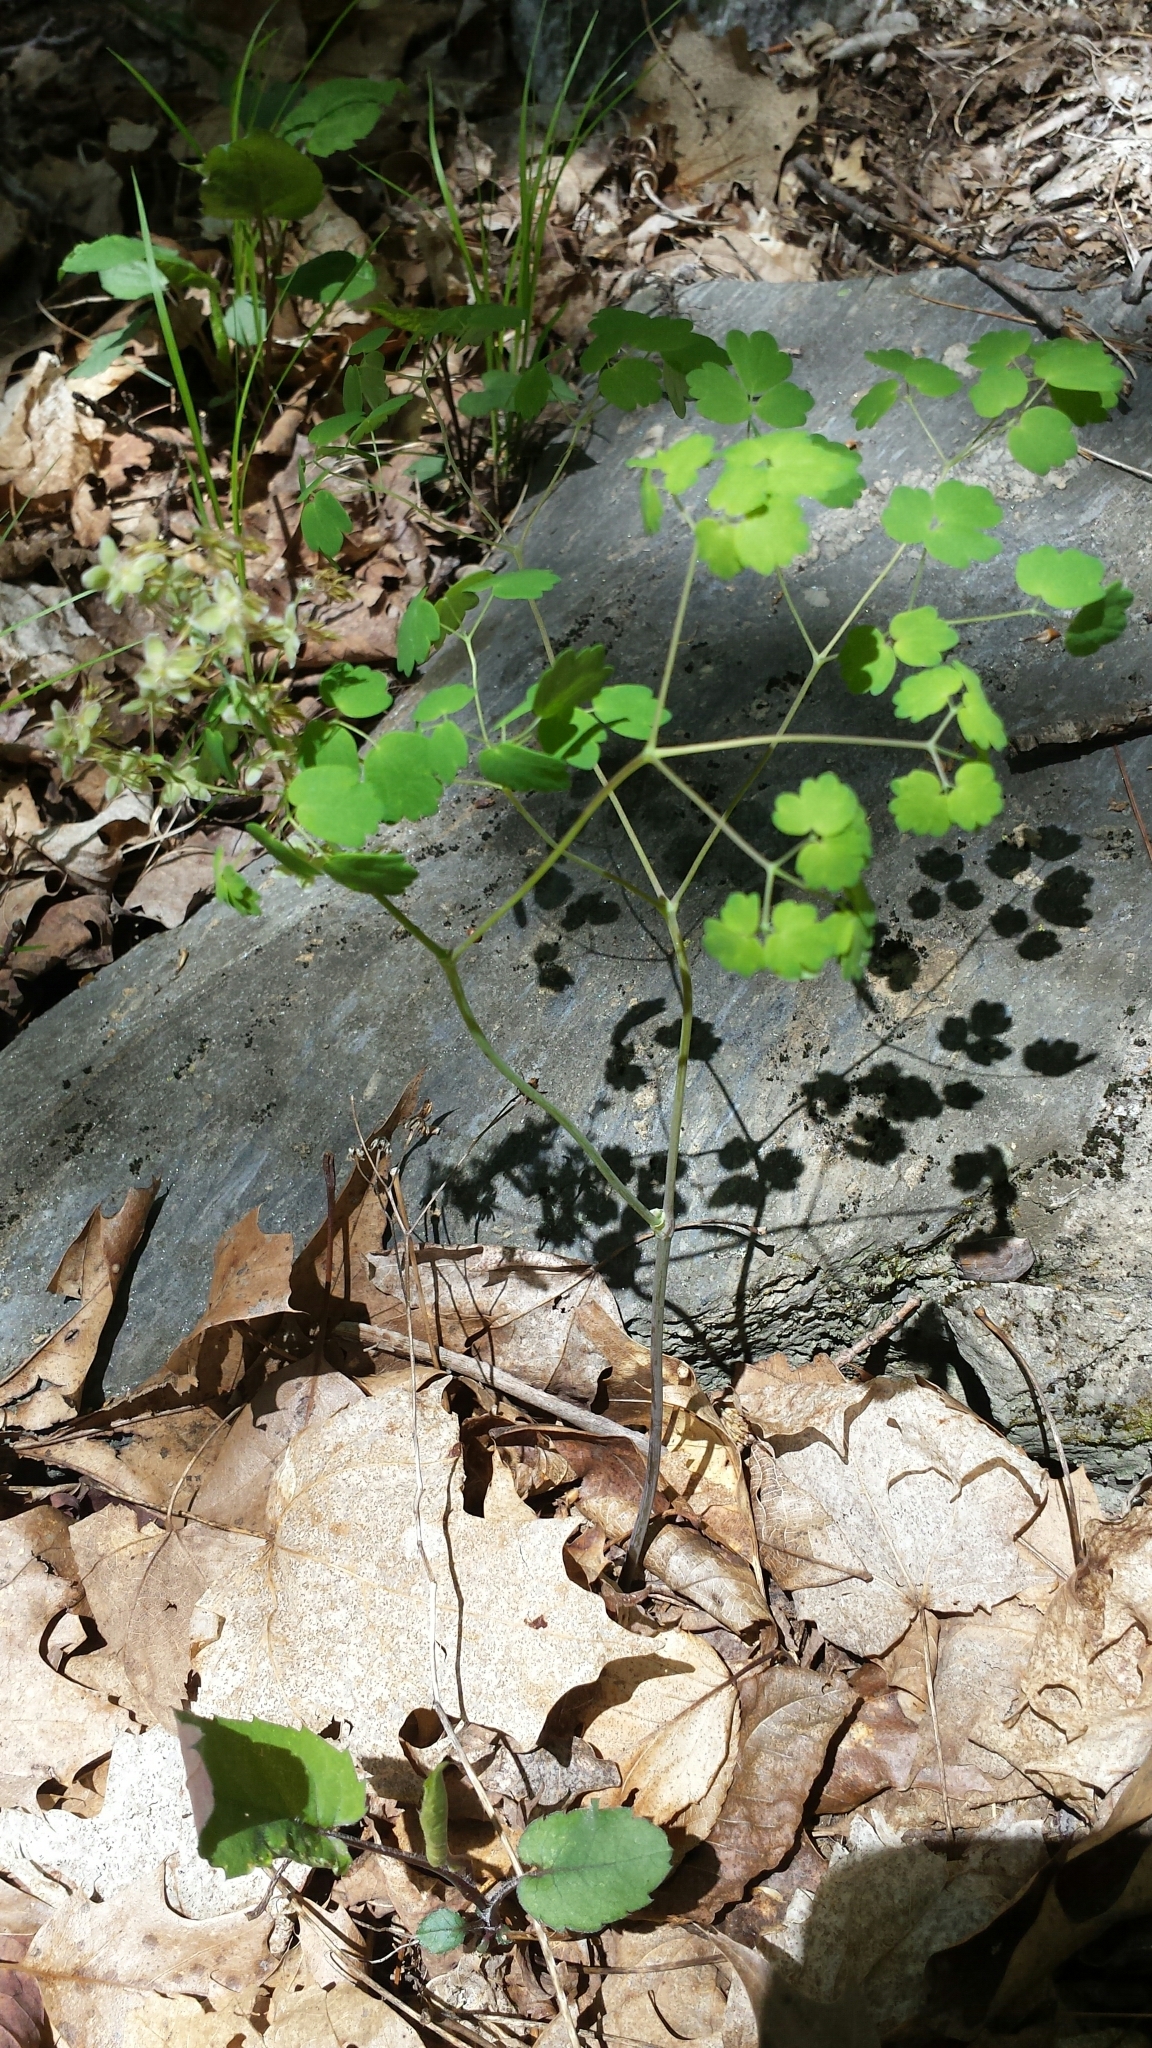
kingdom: Plantae
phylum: Tracheophyta
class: Magnoliopsida
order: Ranunculales
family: Ranunculaceae
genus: Thalictrum
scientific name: Thalictrum dioicum
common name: Early meadow-rue
